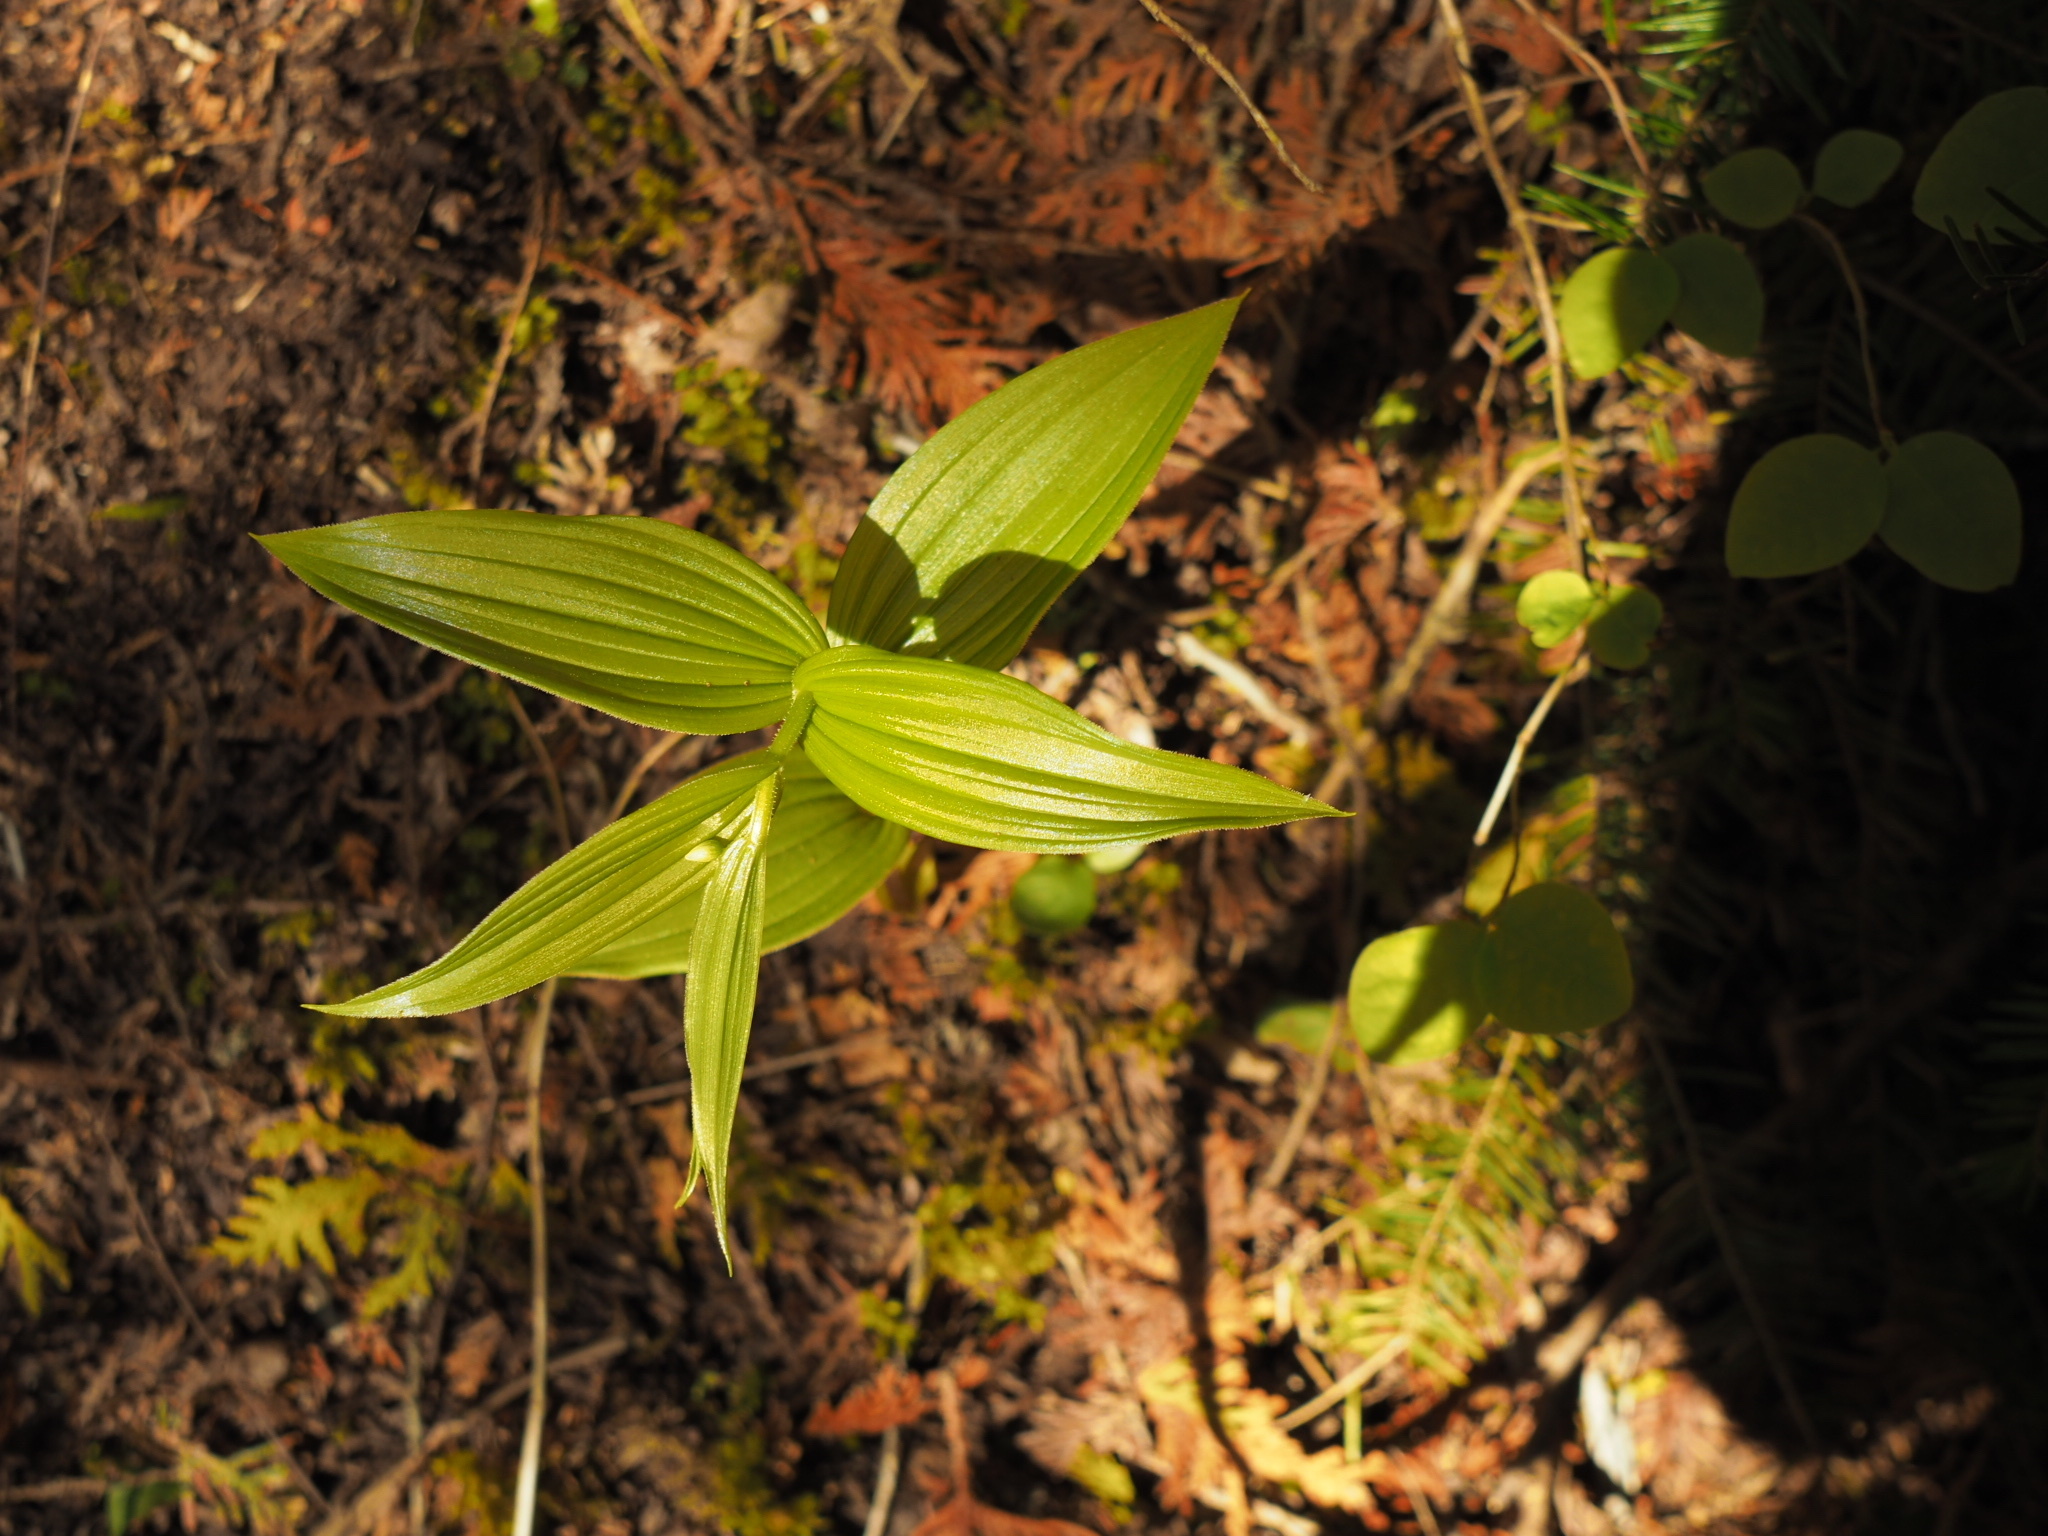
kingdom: Plantae
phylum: Tracheophyta
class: Liliopsida
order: Liliales
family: Liliaceae
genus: Streptopus
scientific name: Streptopus lanceolatus
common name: Rose mandarin
